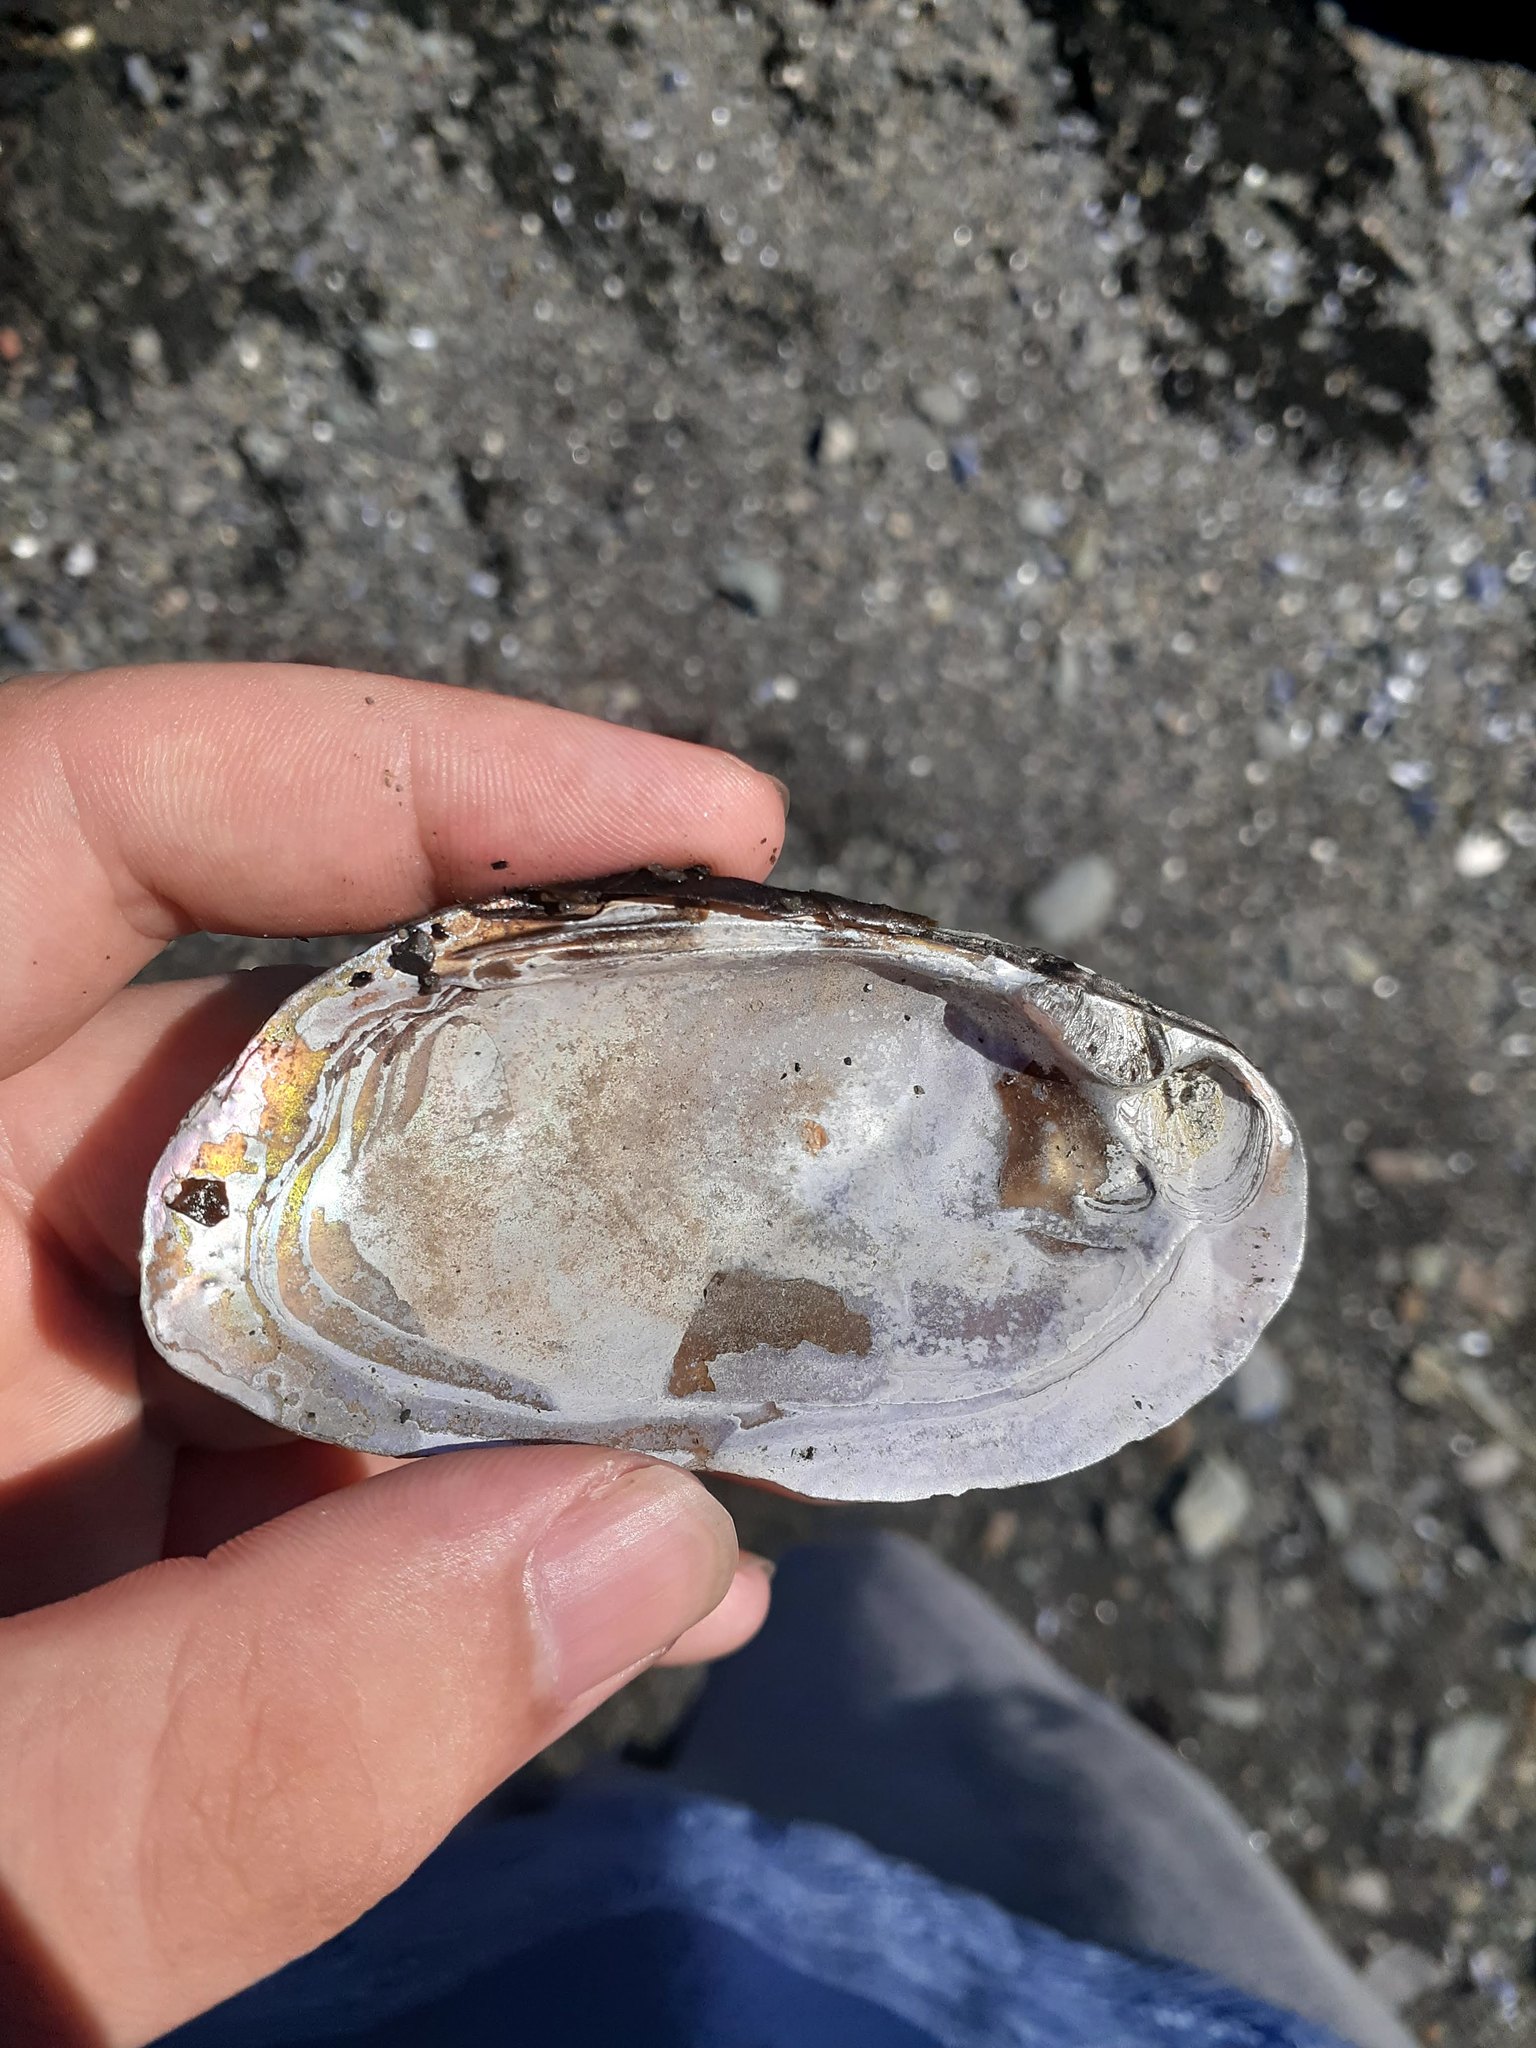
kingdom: Animalia
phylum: Mollusca
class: Bivalvia
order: Unionida
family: Unionidae
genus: Elliptio
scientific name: Elliptio complanata
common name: Eastern elliptio
